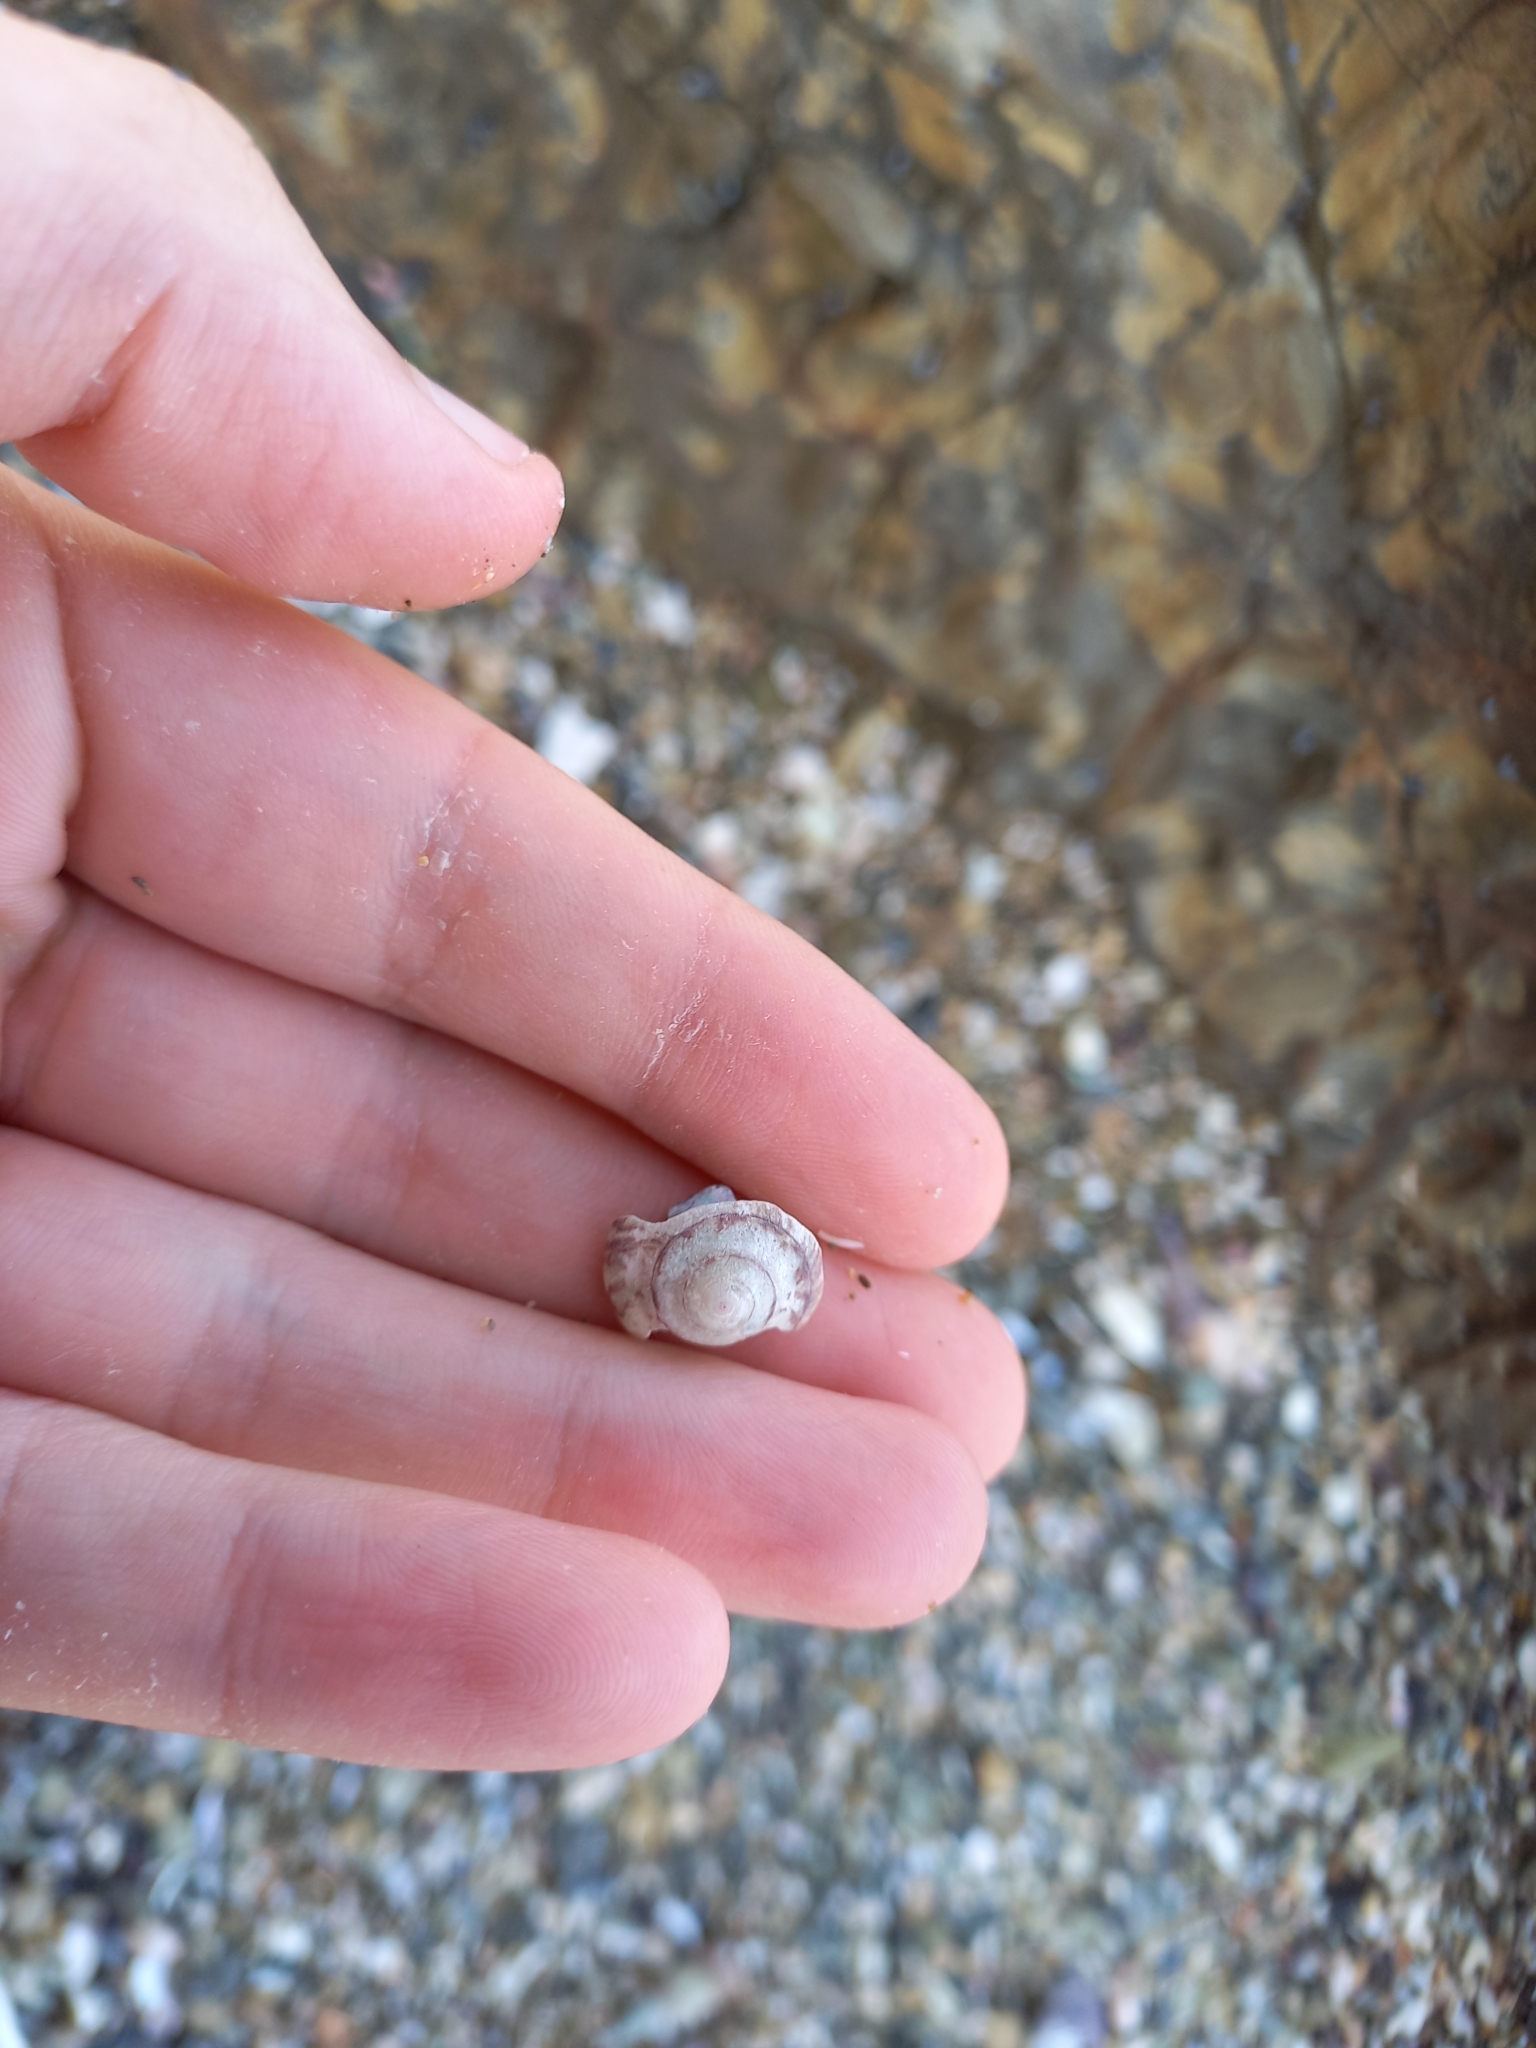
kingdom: Animalia
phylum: Mollusca
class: Gastropoda
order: Trochida
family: Trochidae
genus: Zethalia
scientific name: Zethalia zelandica
